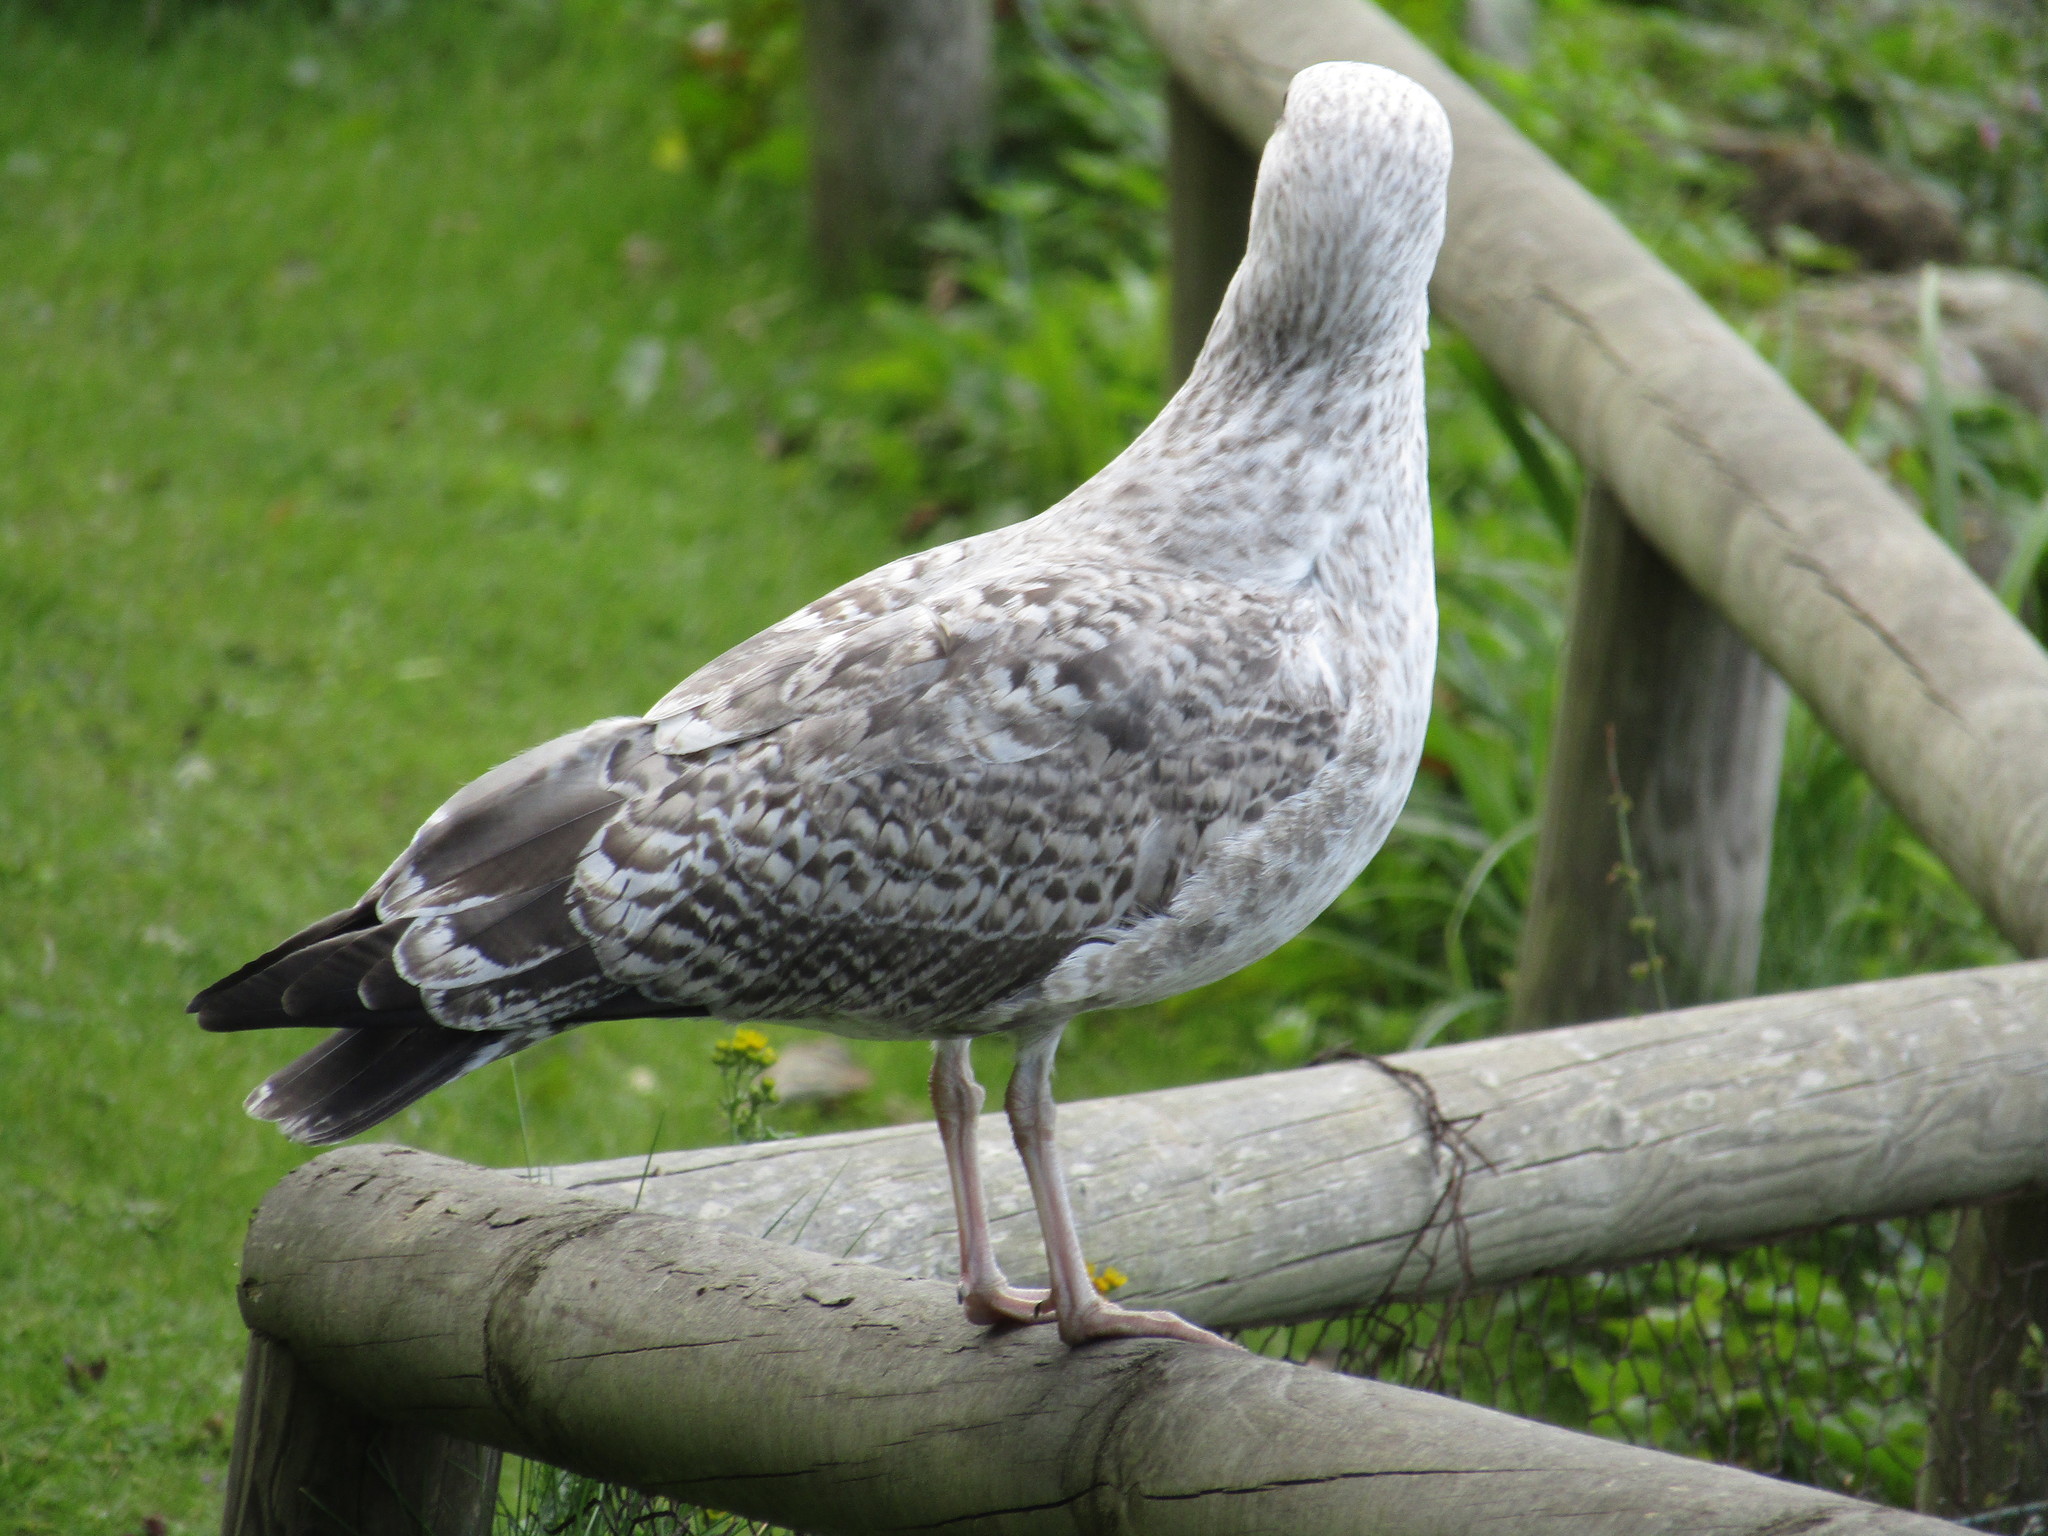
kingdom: Animalia
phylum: Chordata
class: Aves
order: Charadriiformes
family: Laridae
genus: Larus
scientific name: Larus argentatus
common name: Herring gull
